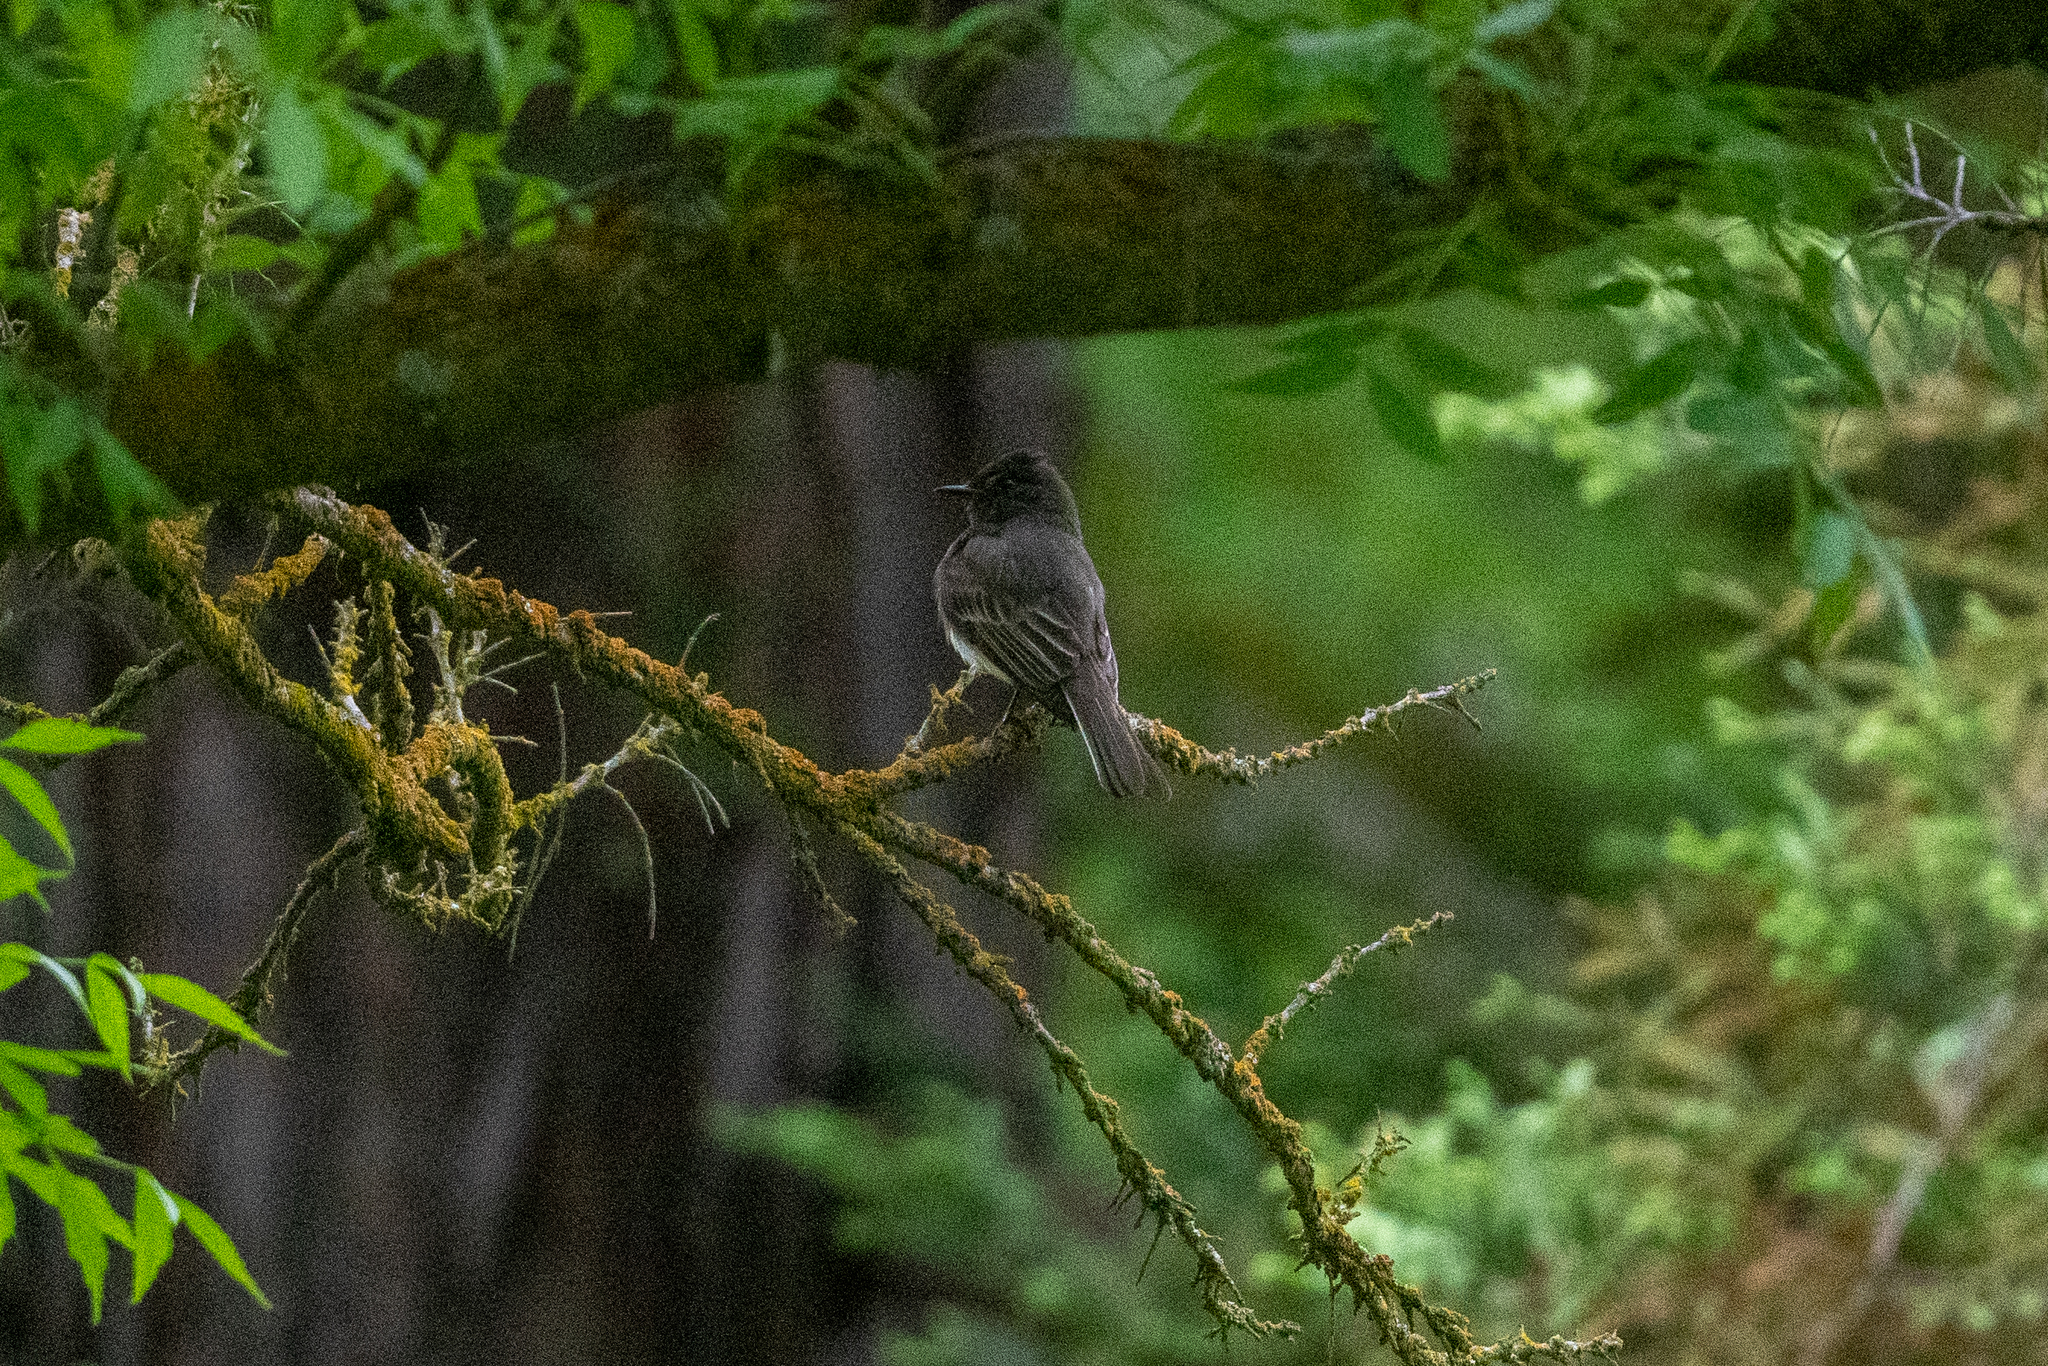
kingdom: Animalia
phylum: Chordata
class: Aves
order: Passeriformes
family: Tyrannidae
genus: Sayornis
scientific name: Sayornis nigricans
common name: Black phoebe
